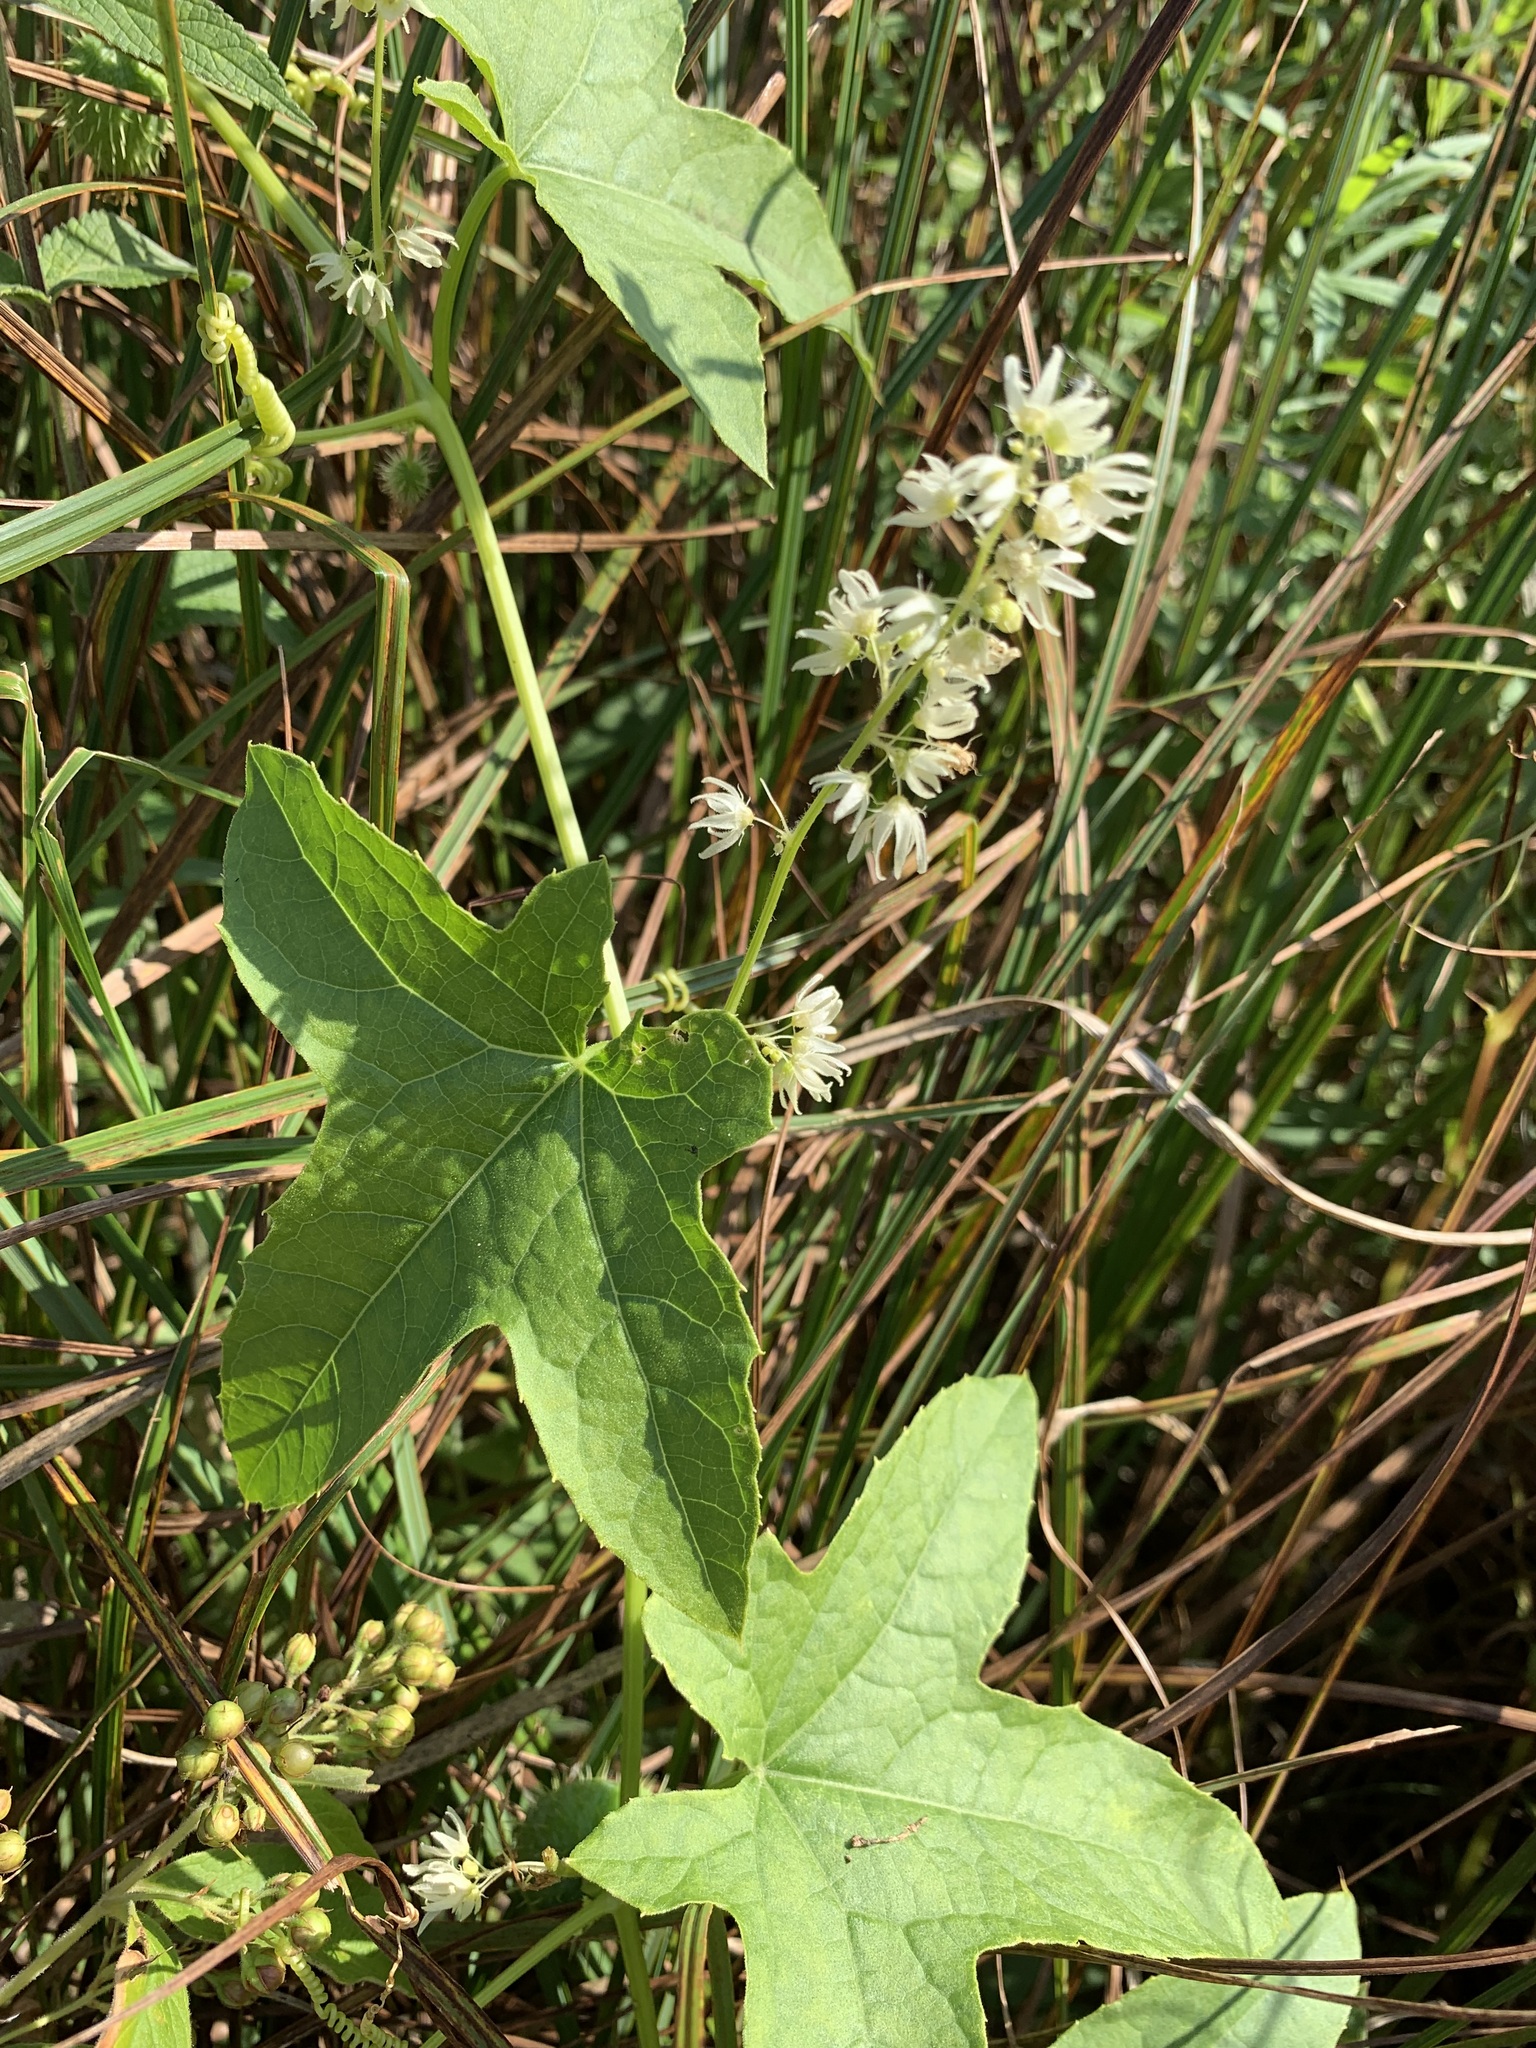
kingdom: Plantae
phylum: Tracheophyta
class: Magnoliopsida
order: Cucurbitales
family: Cucurbitaceae
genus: Echinocystis
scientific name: Echinocystis lobata
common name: Wild cucumber
